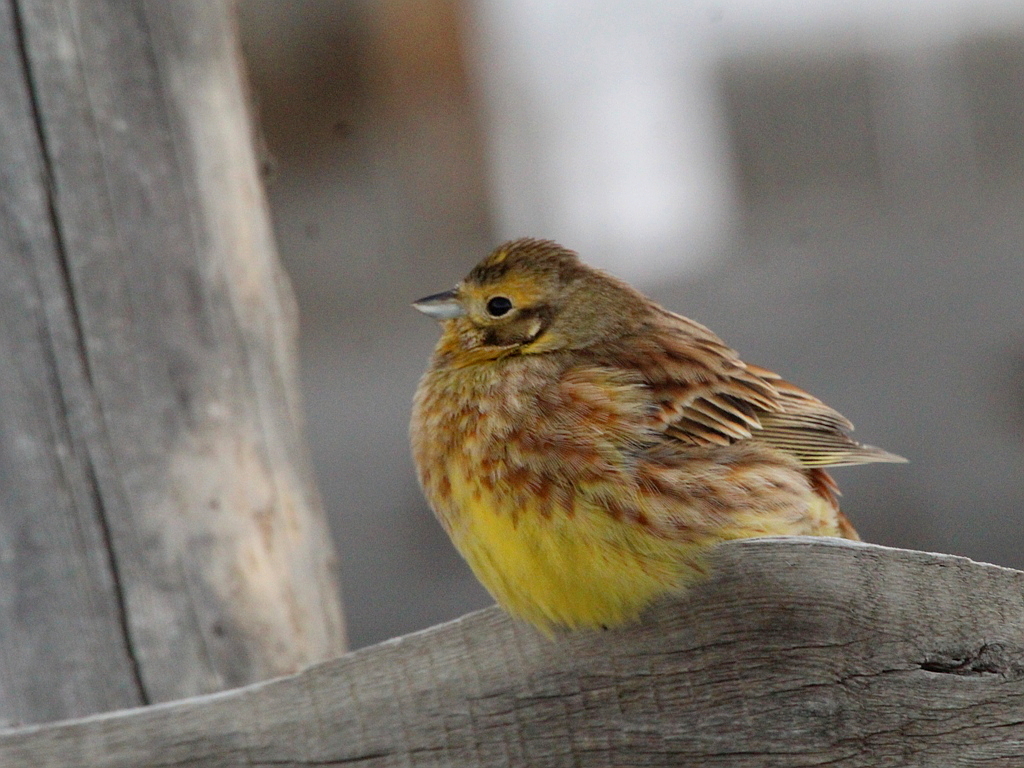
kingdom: Animalia
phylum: Chordata
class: Aves
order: Passeriformes
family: Emberizidae
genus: Emberiza
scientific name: Emberiza
